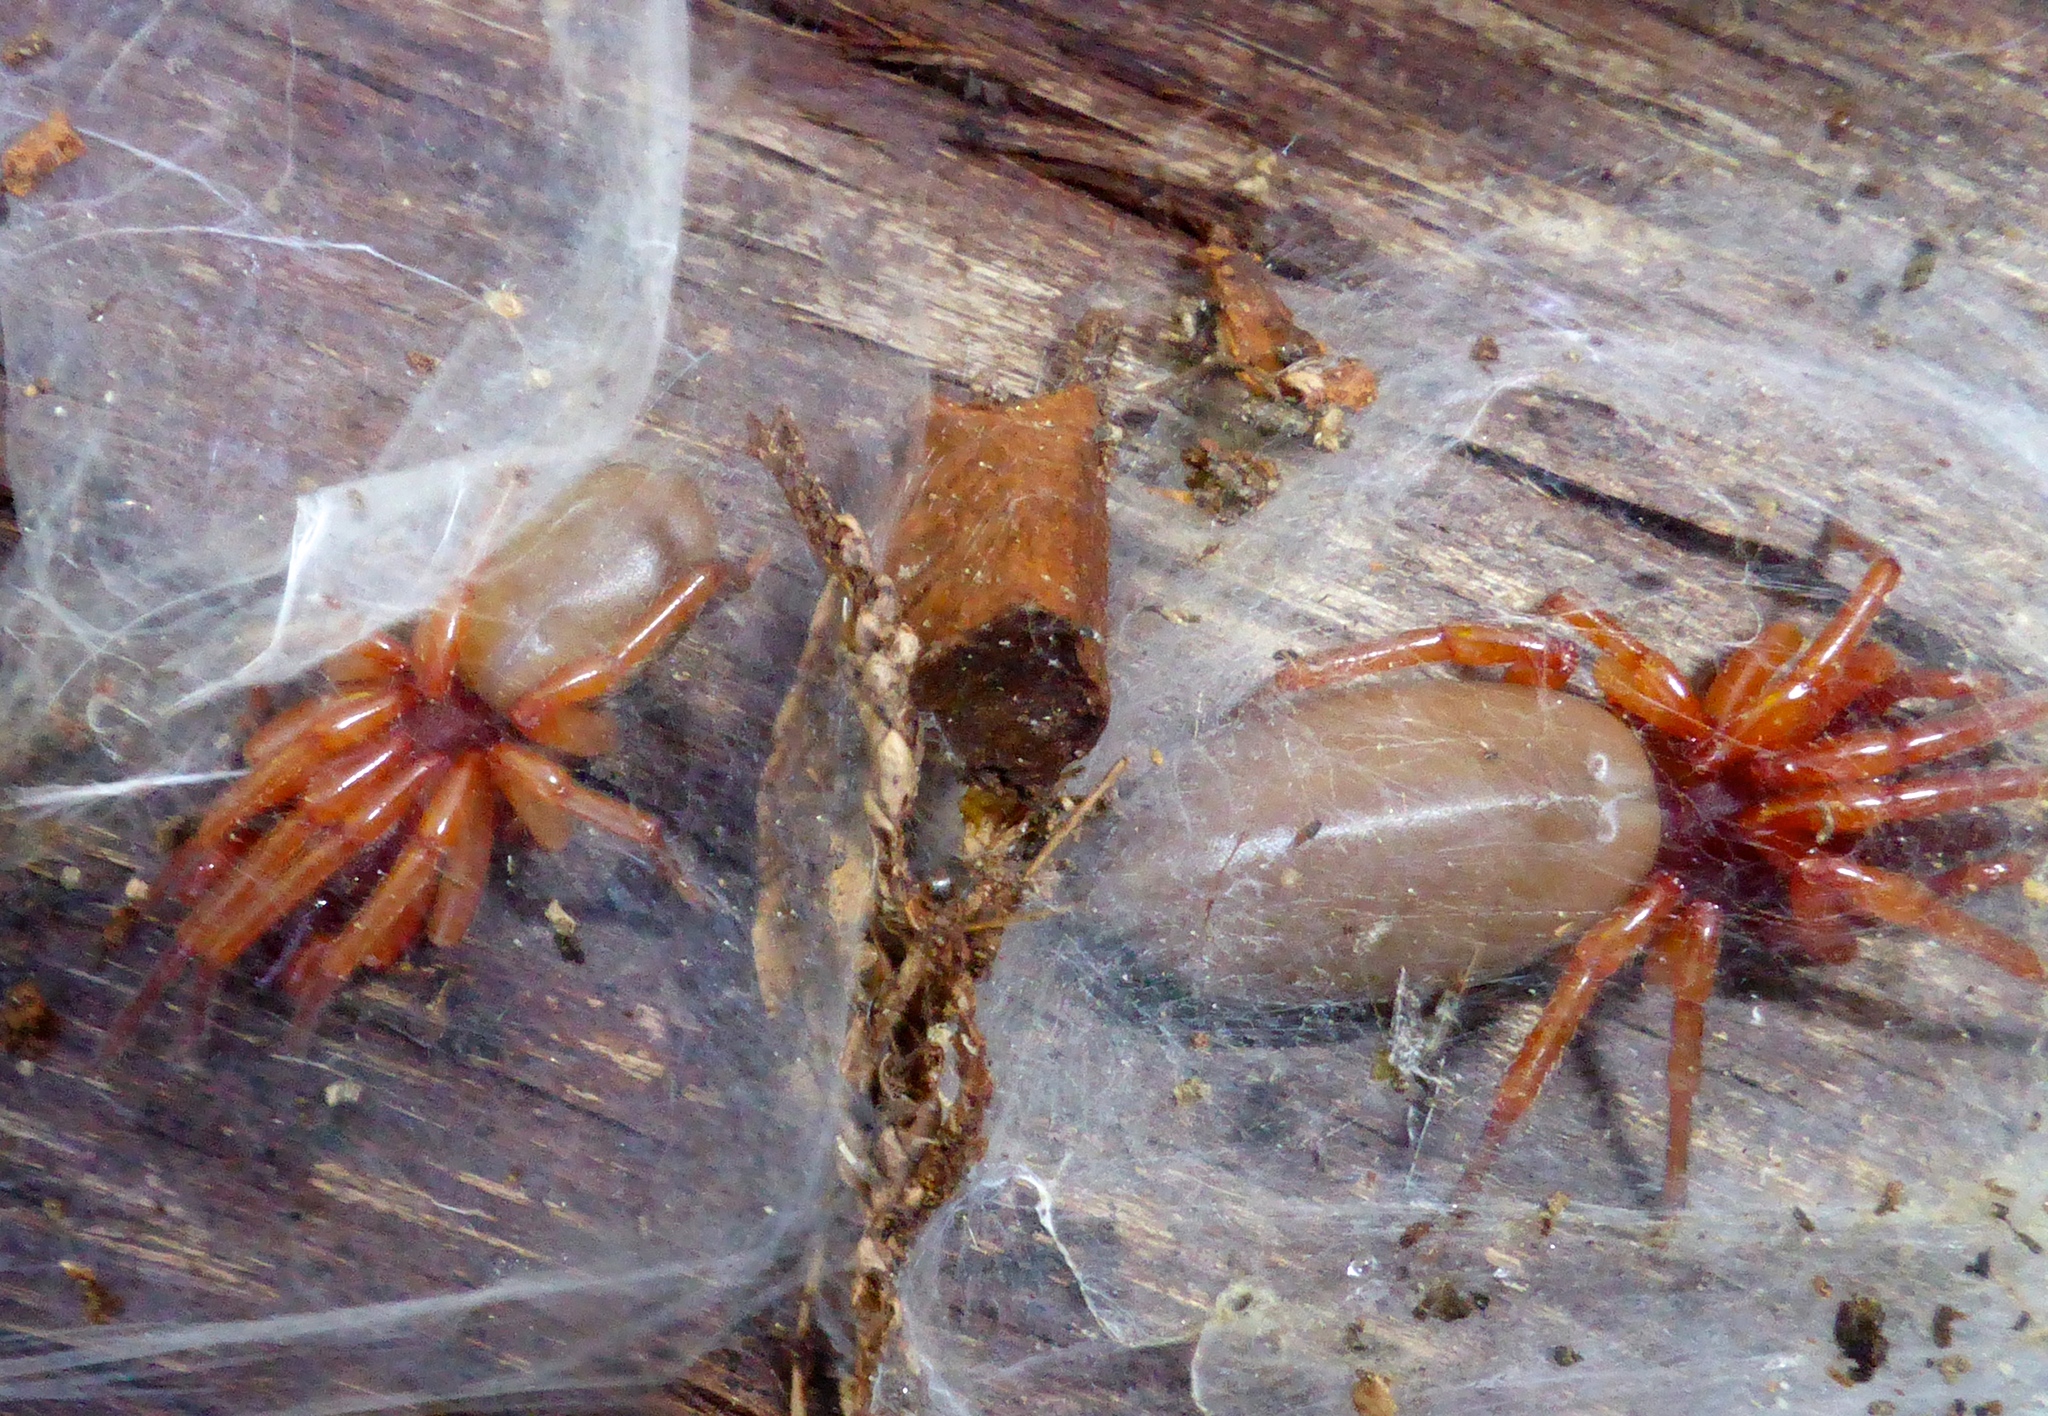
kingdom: Animalia
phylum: Arthropoda
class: Arachnida
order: Araneae
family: Dysderidae
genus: Dysdera
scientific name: Dysdera crocata
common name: Woodlouse spider
